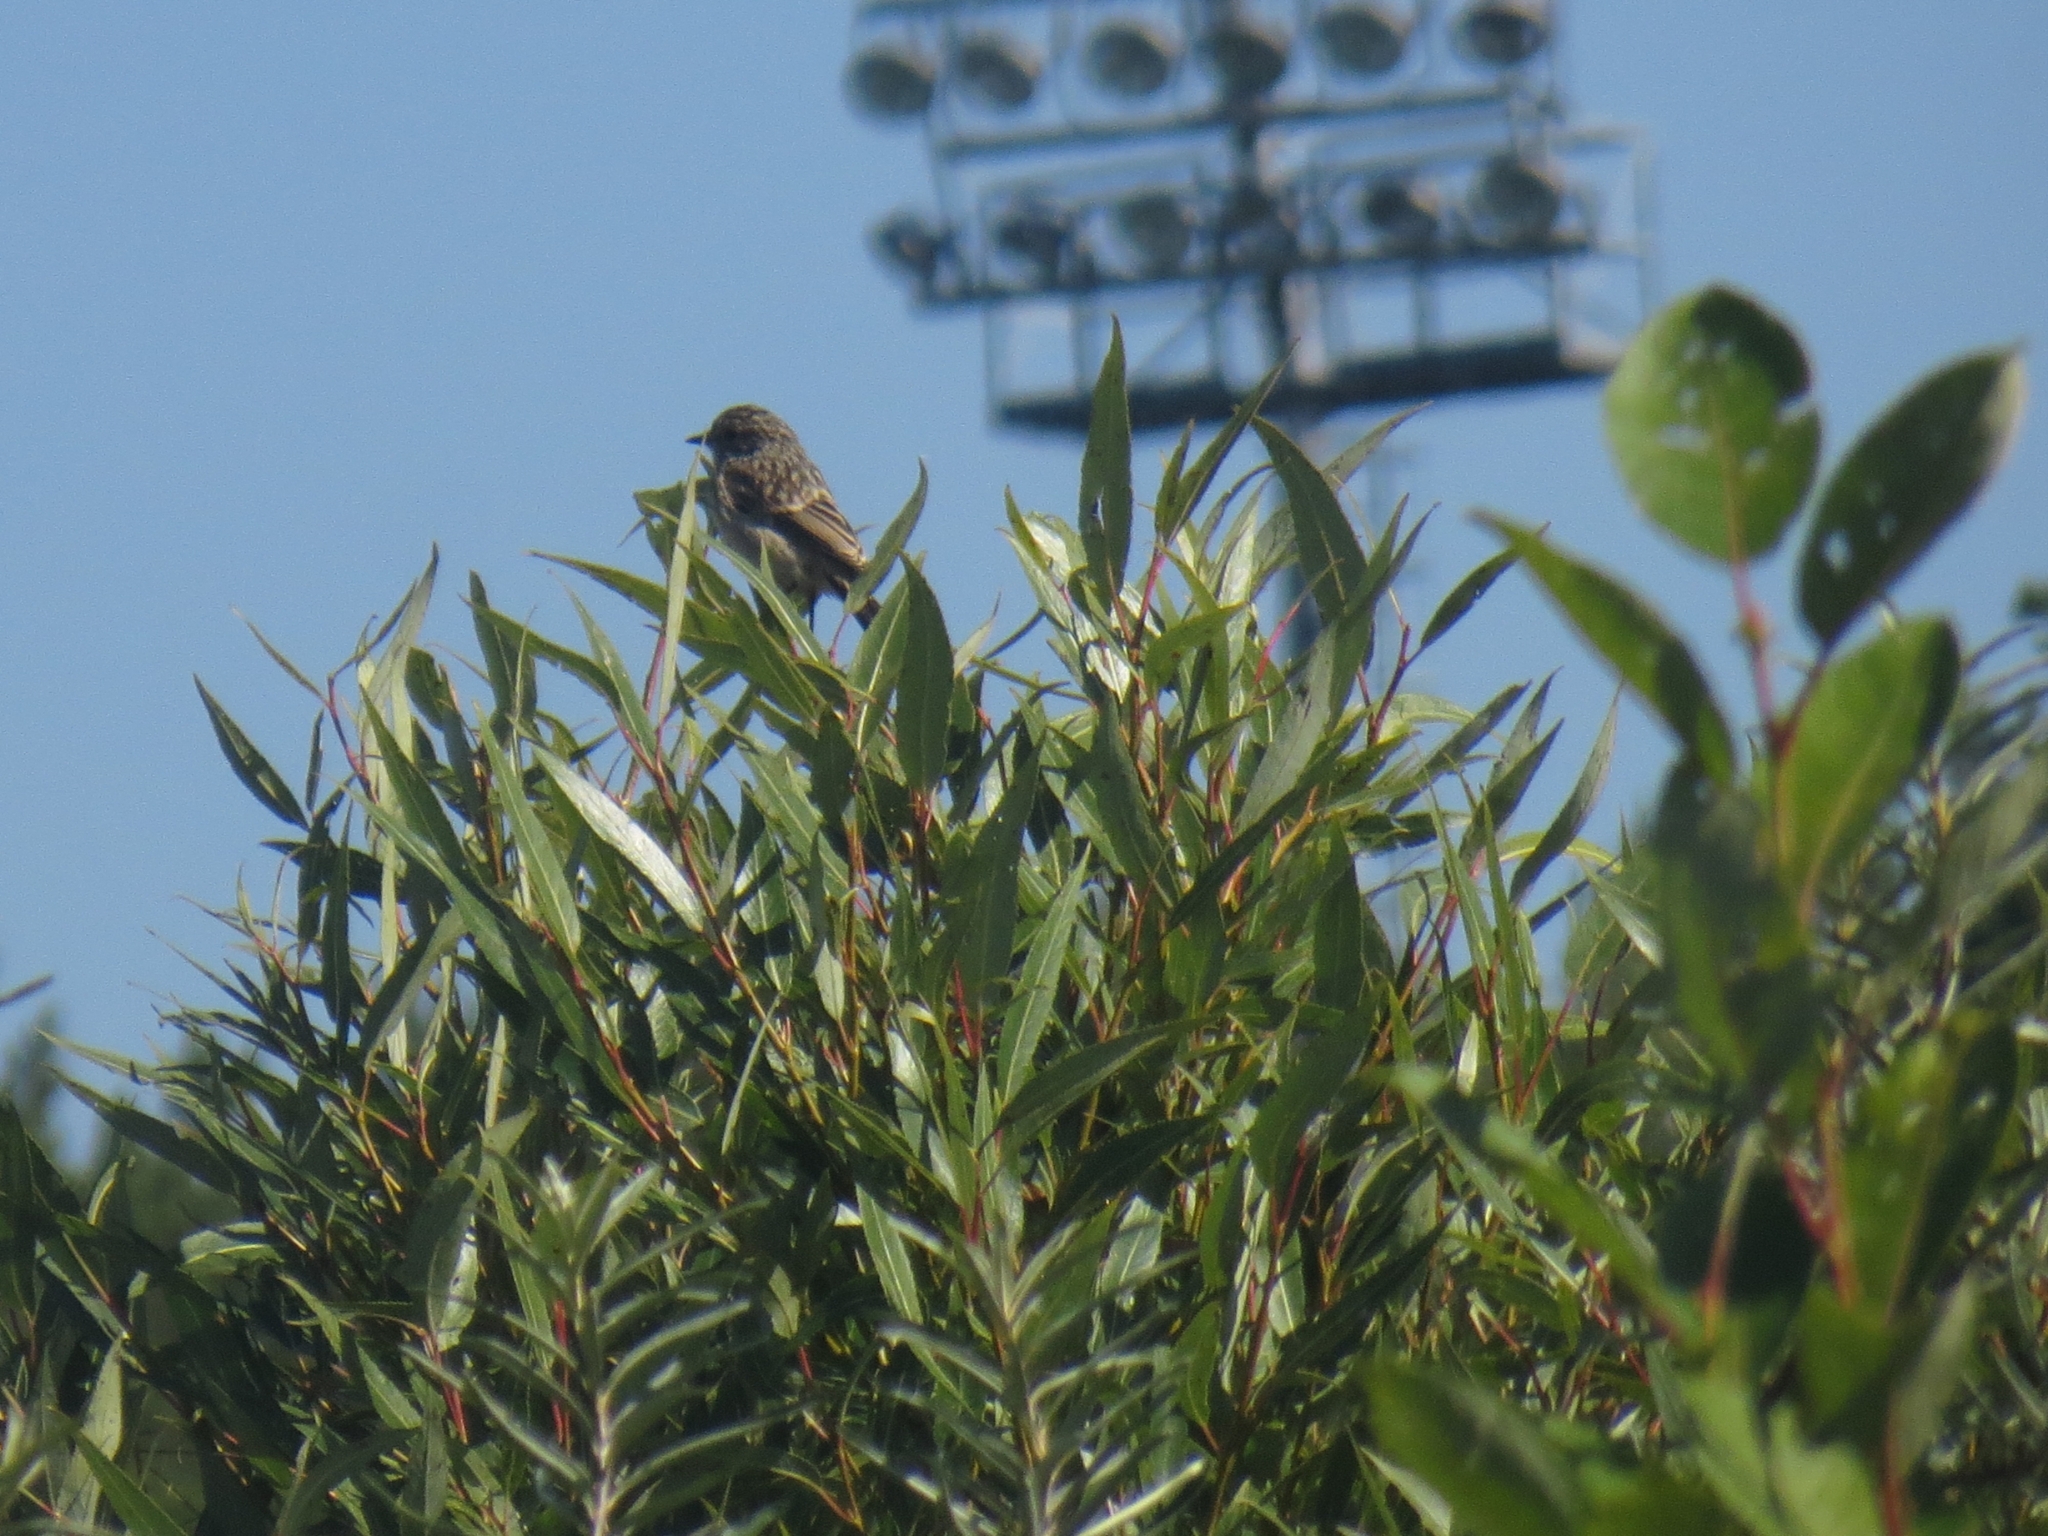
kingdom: Animalia
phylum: Chordata
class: Aves
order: Passeriformes
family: Muscicapidae
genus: Saxicola
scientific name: Saxicola maurus
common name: Siberian stonechat
